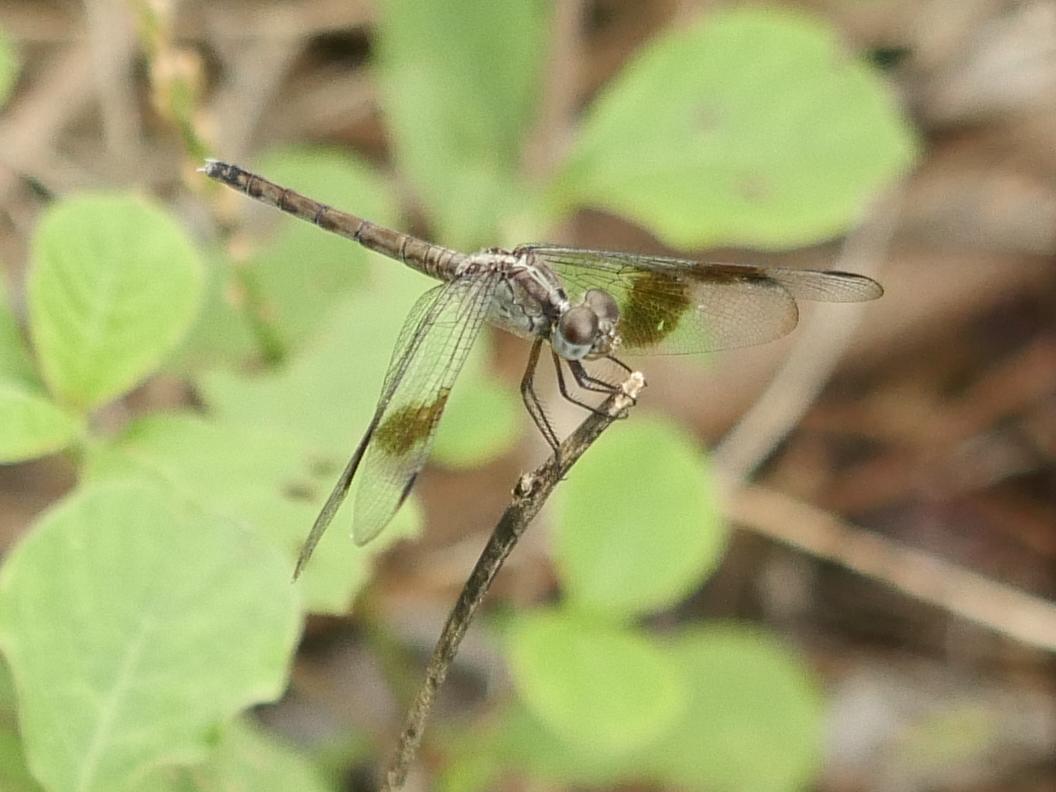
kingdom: Animalia
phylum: Arthropoda
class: Insecta
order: Odonata
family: Libellulidae
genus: Erythrodiplax
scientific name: Erythrodiplax umbrata
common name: Band-winged dragonlet
